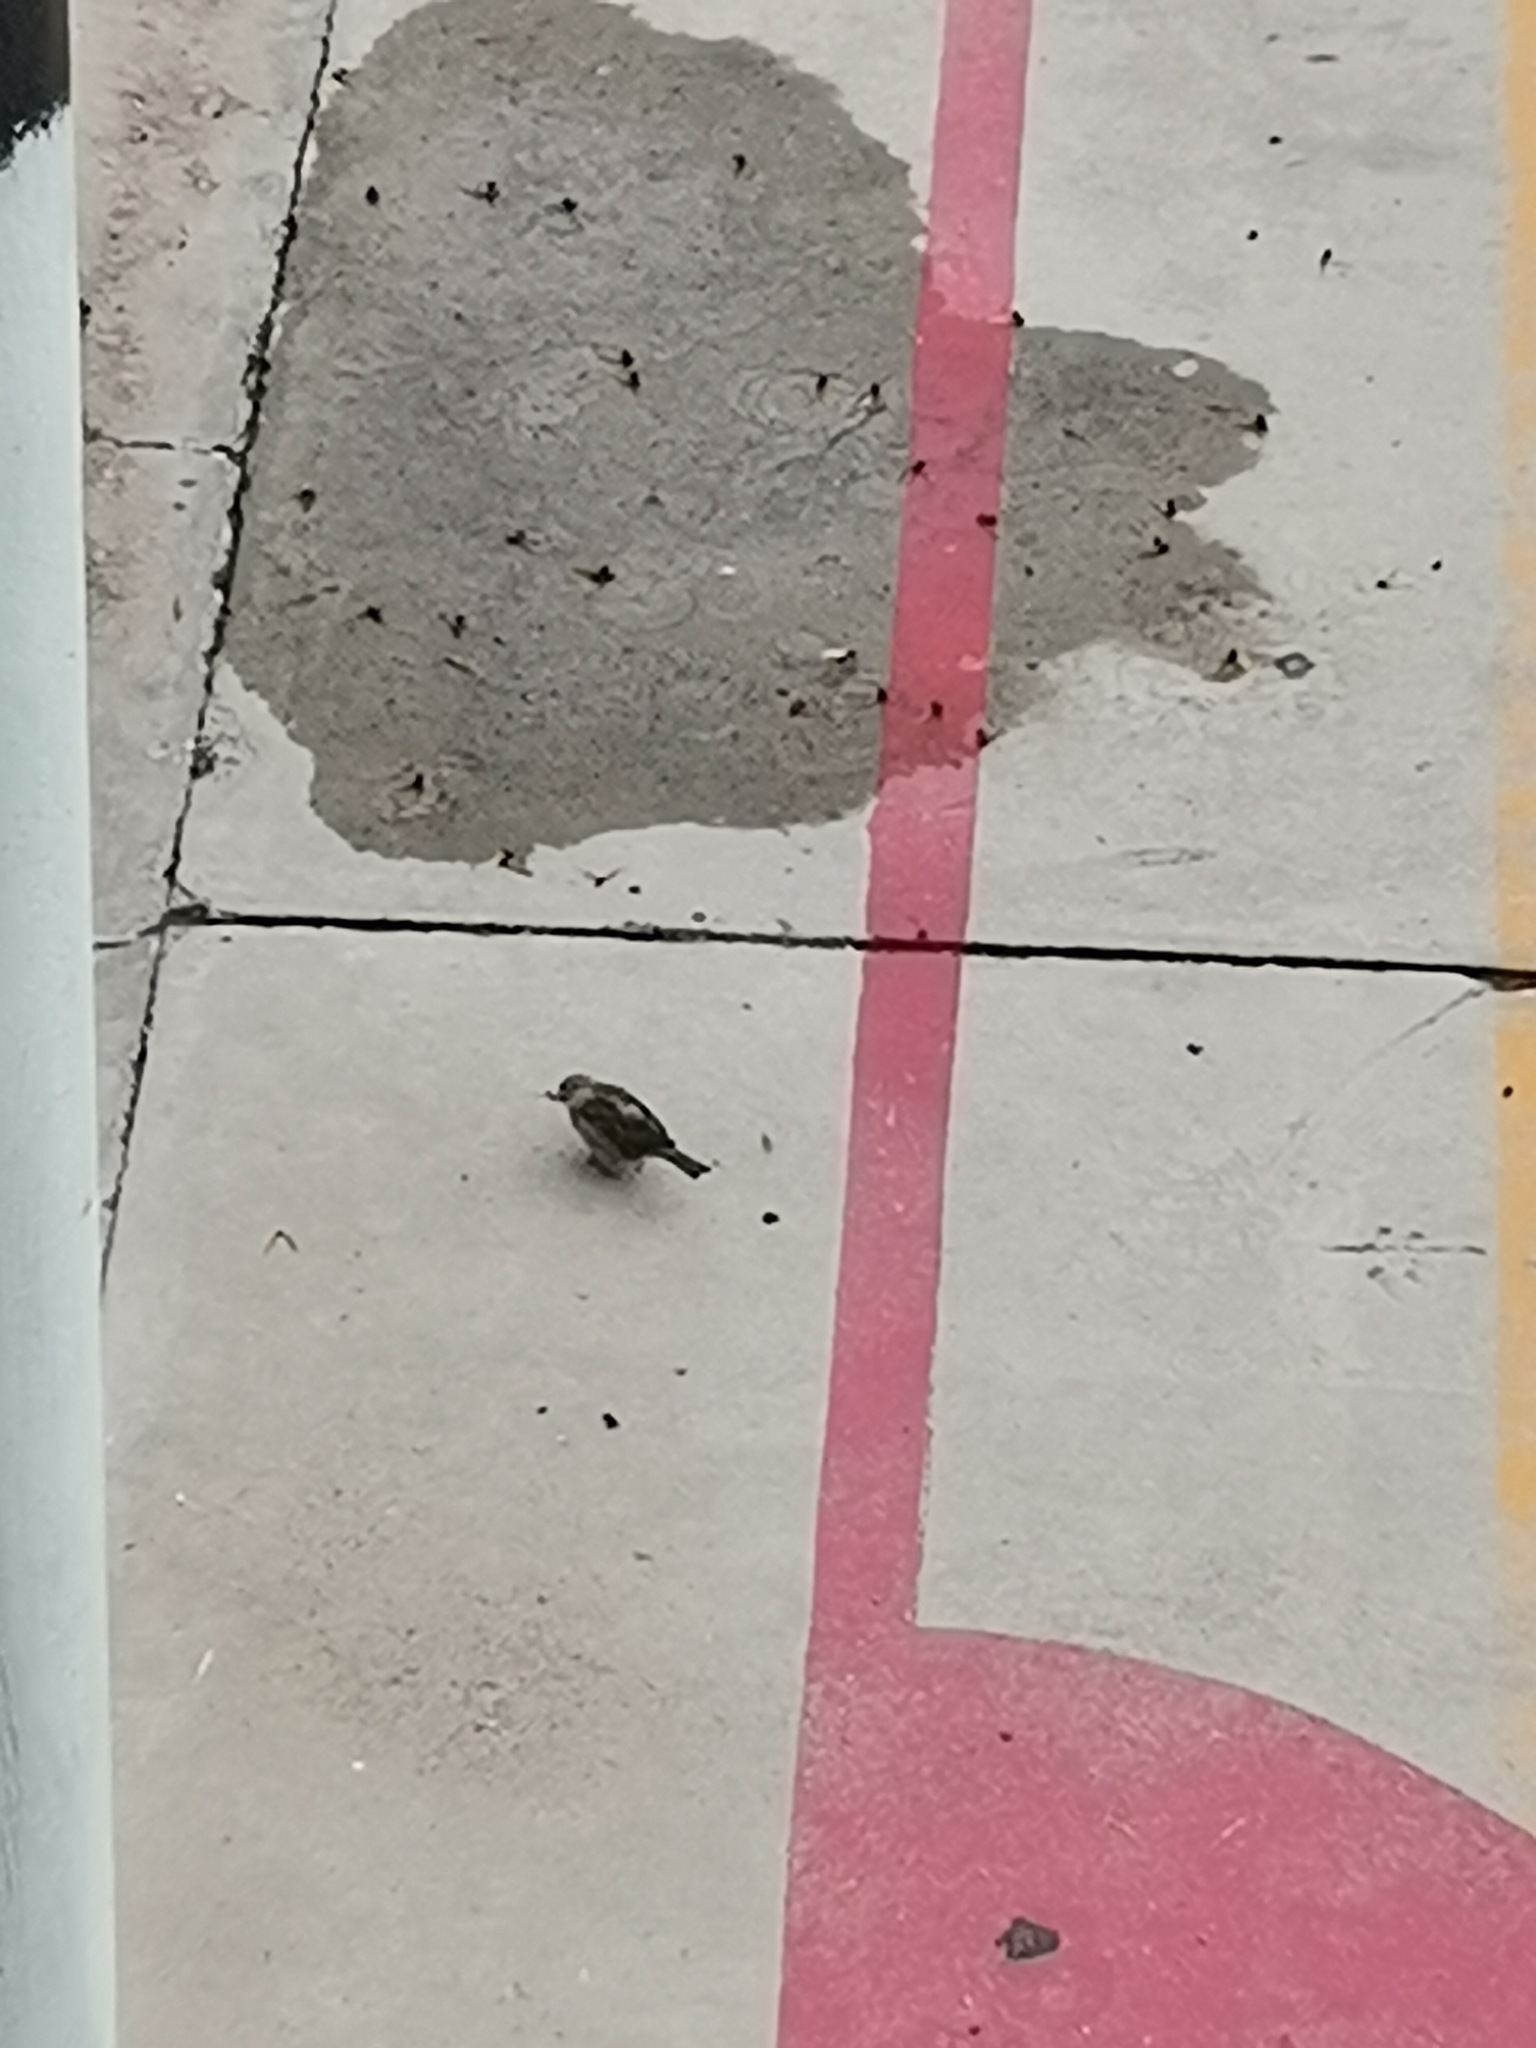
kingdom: Animalia
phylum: Chordata
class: Aves
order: Passeriformes
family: Passeridae
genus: Passer
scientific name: Passer domesticus
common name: House sparrow
